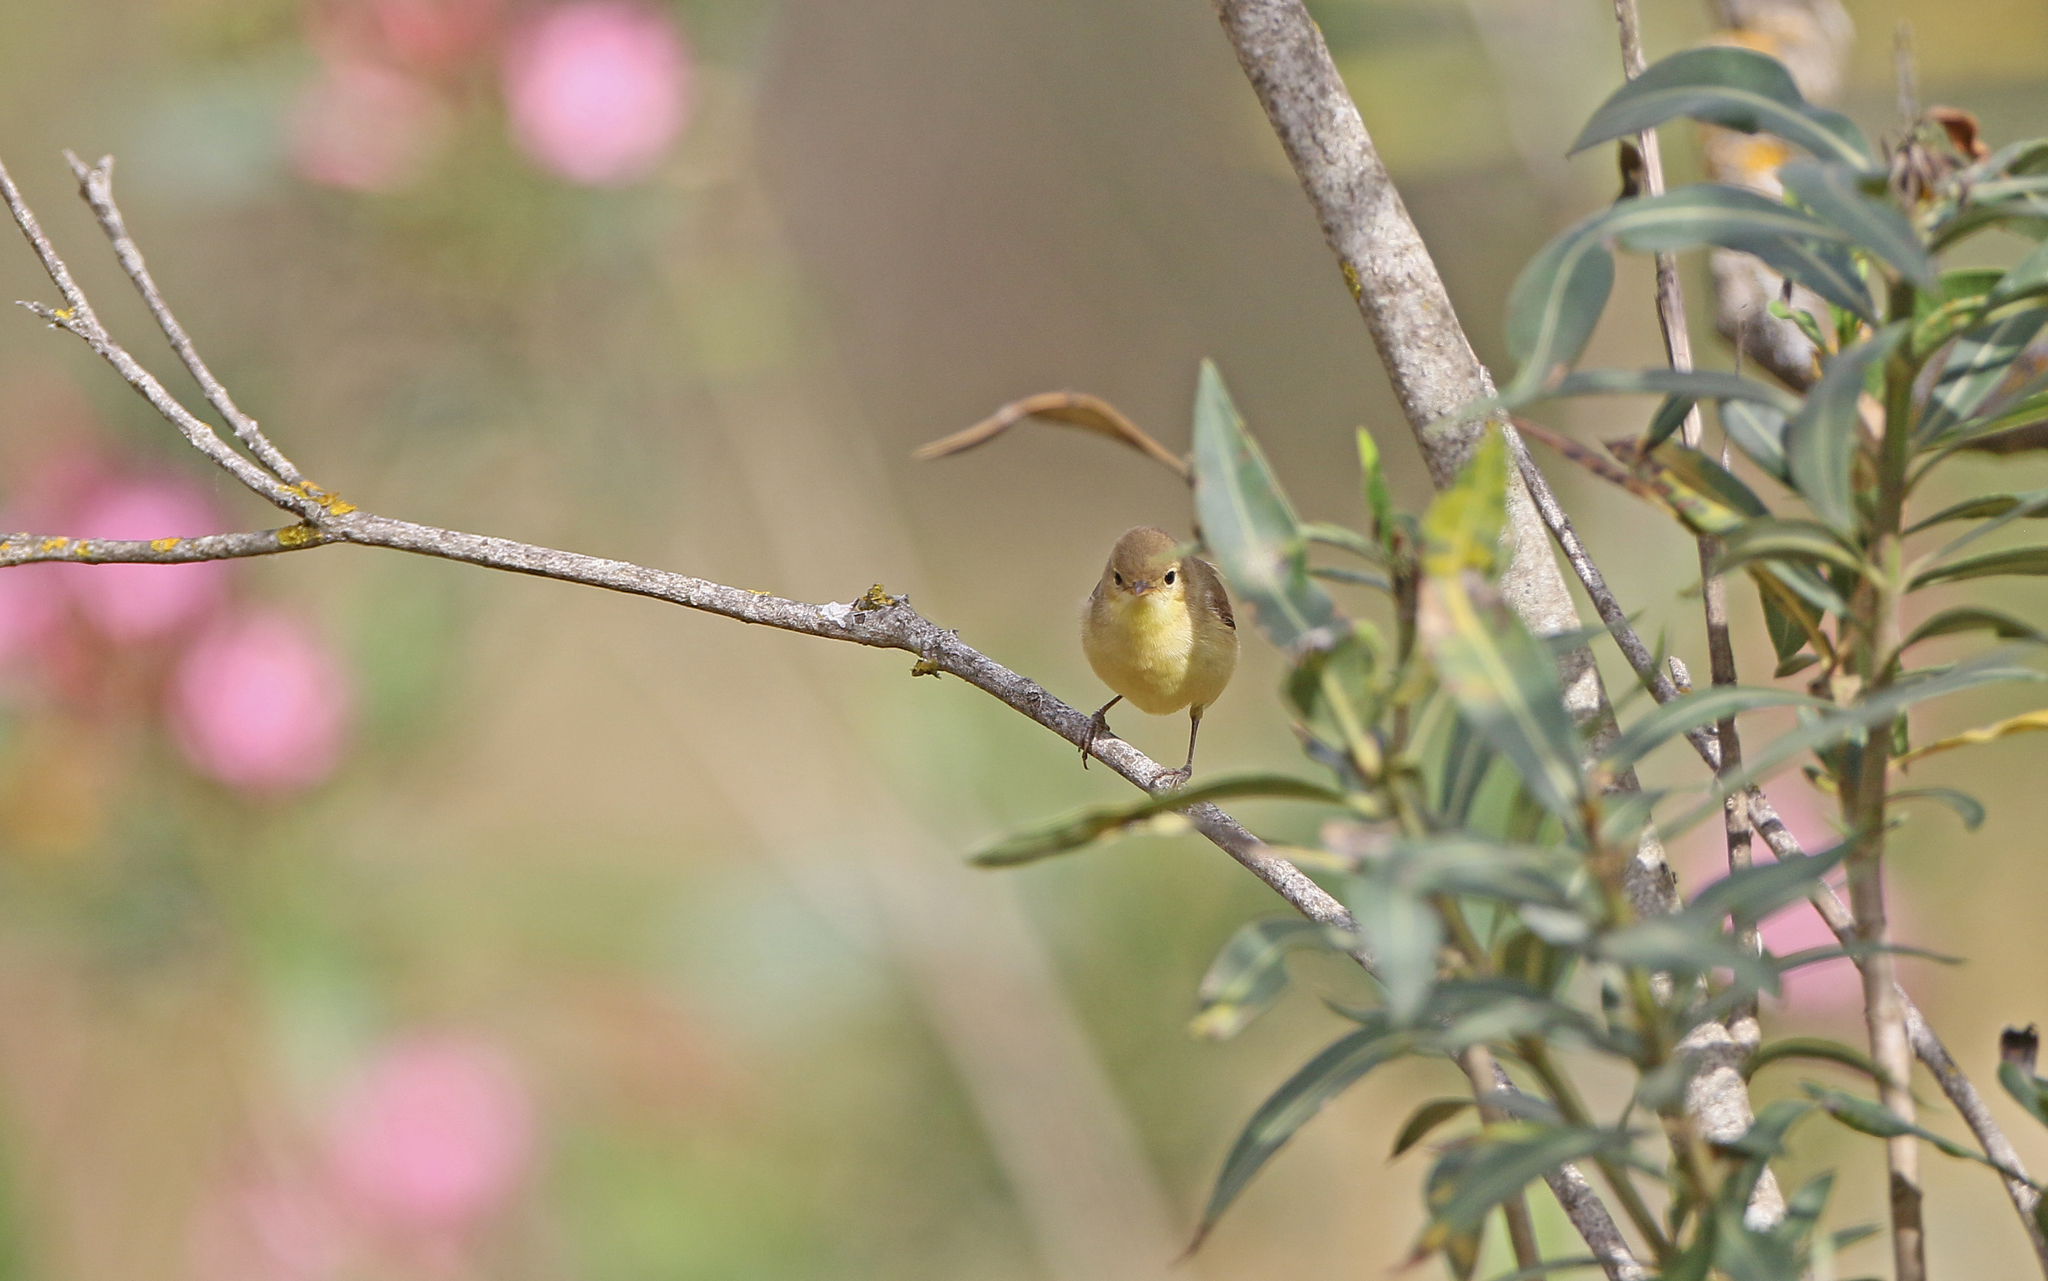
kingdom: Animalia
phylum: Chordata
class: Aves
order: Passeriformes
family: Acrocephalidae
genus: Hippolais
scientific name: Hippolais polyglotta
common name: Melodious warbler
